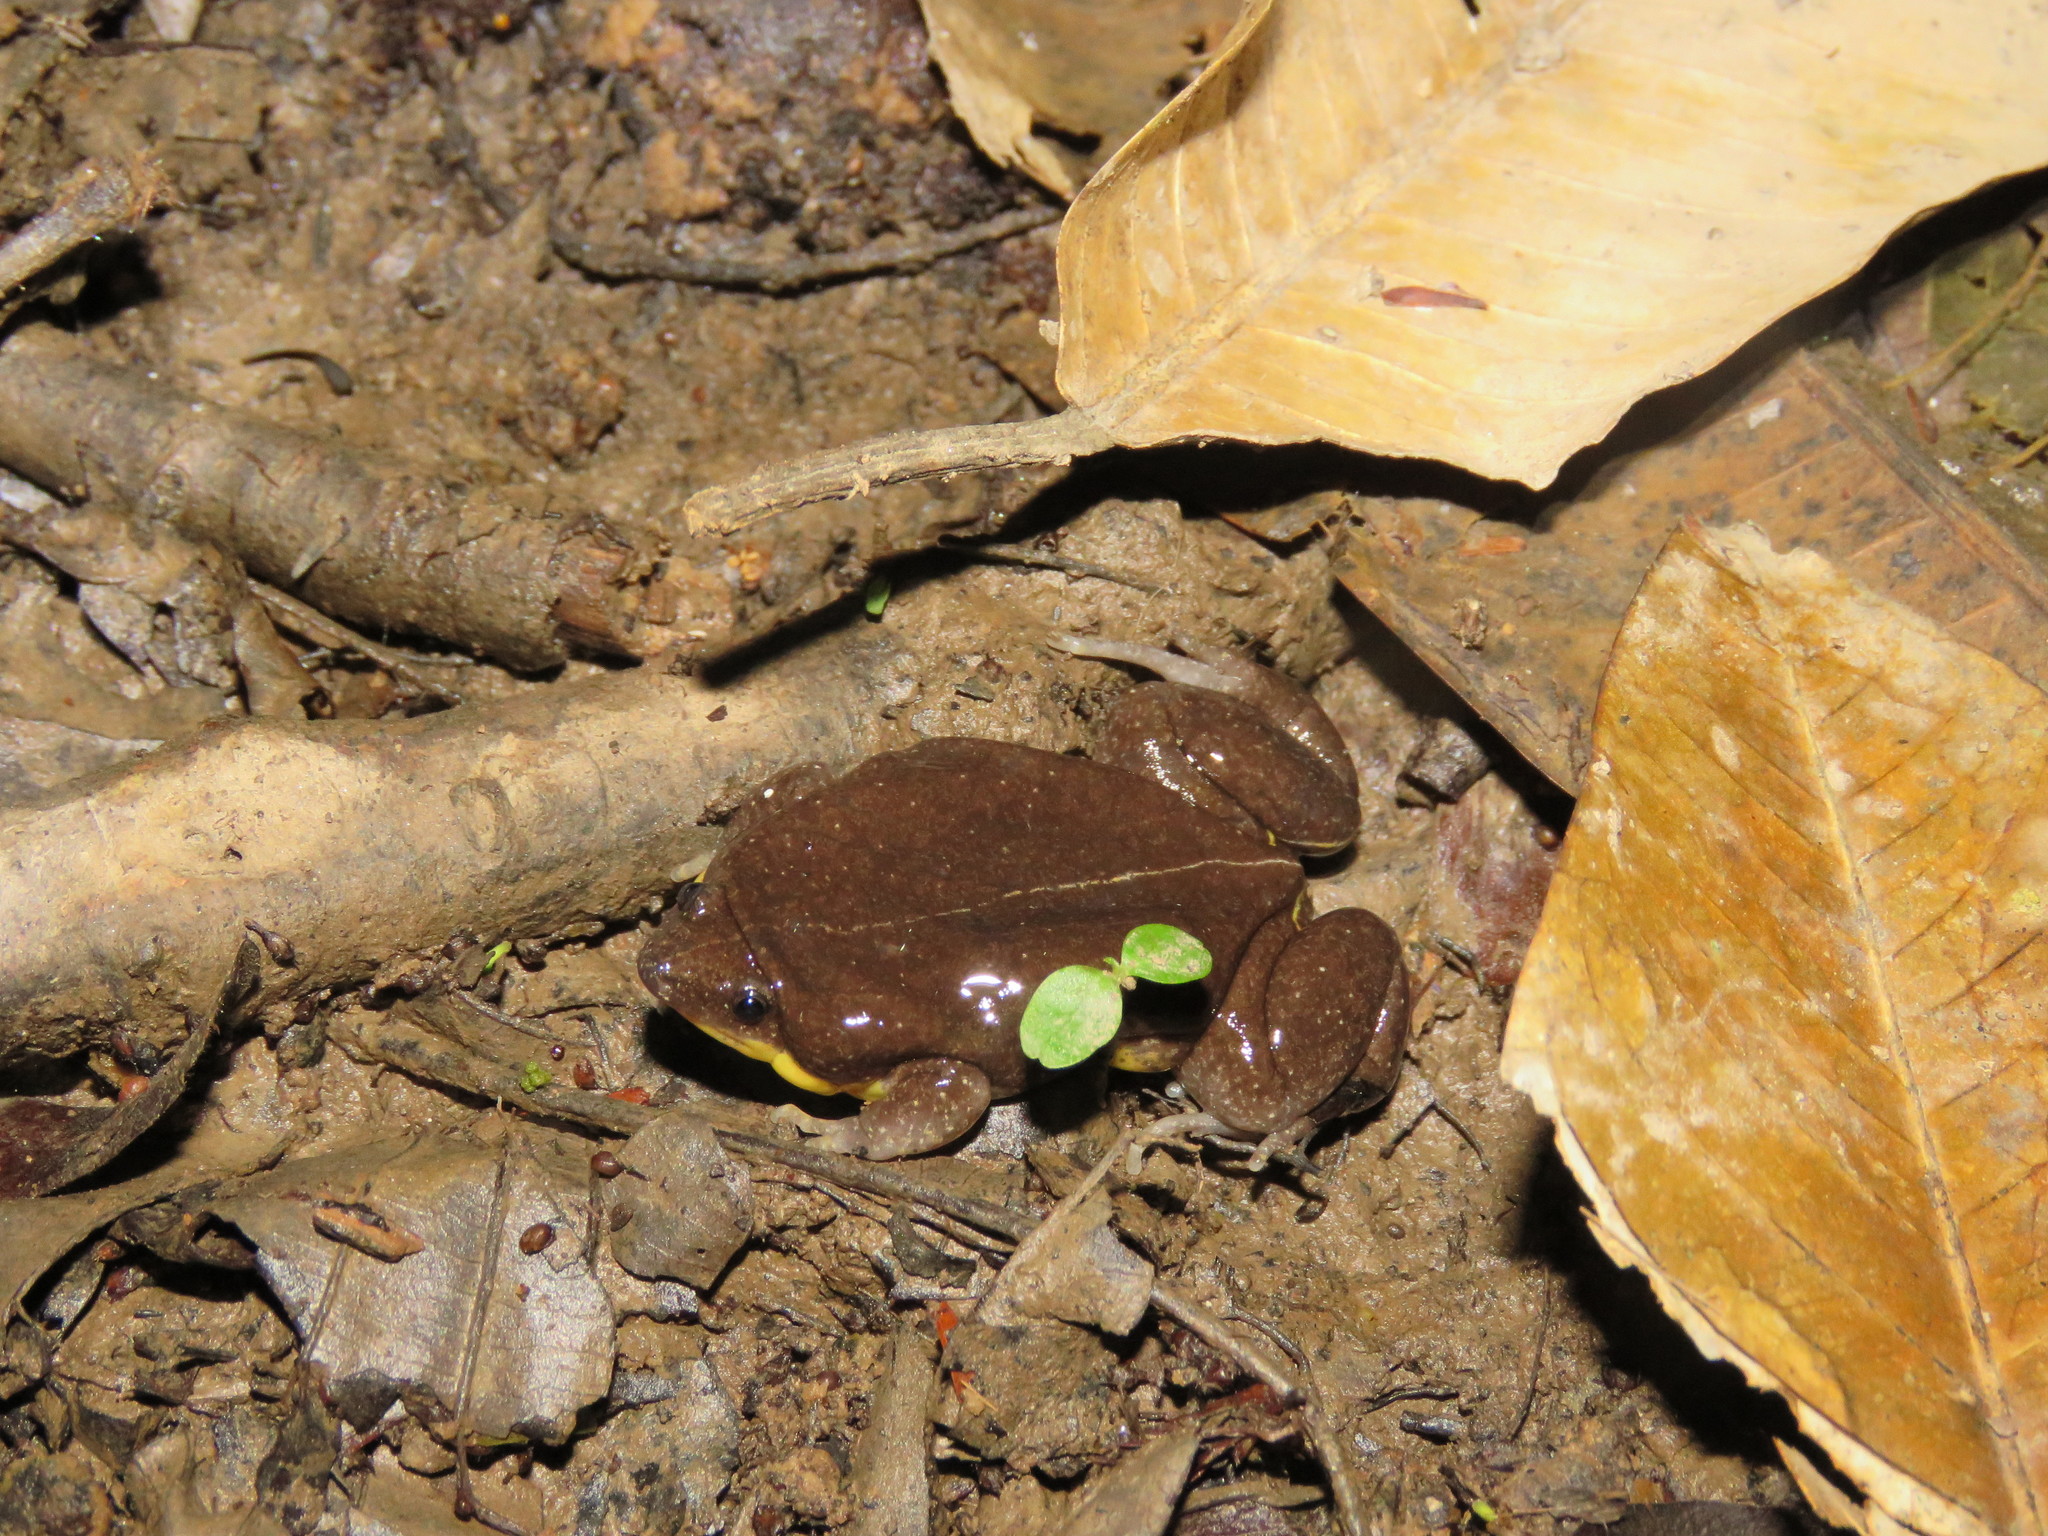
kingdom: Animalia
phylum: Chordata
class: Amphibia
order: Anura
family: Microhylidae
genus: Elachistocleis
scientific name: Elachistocleis bicolor
